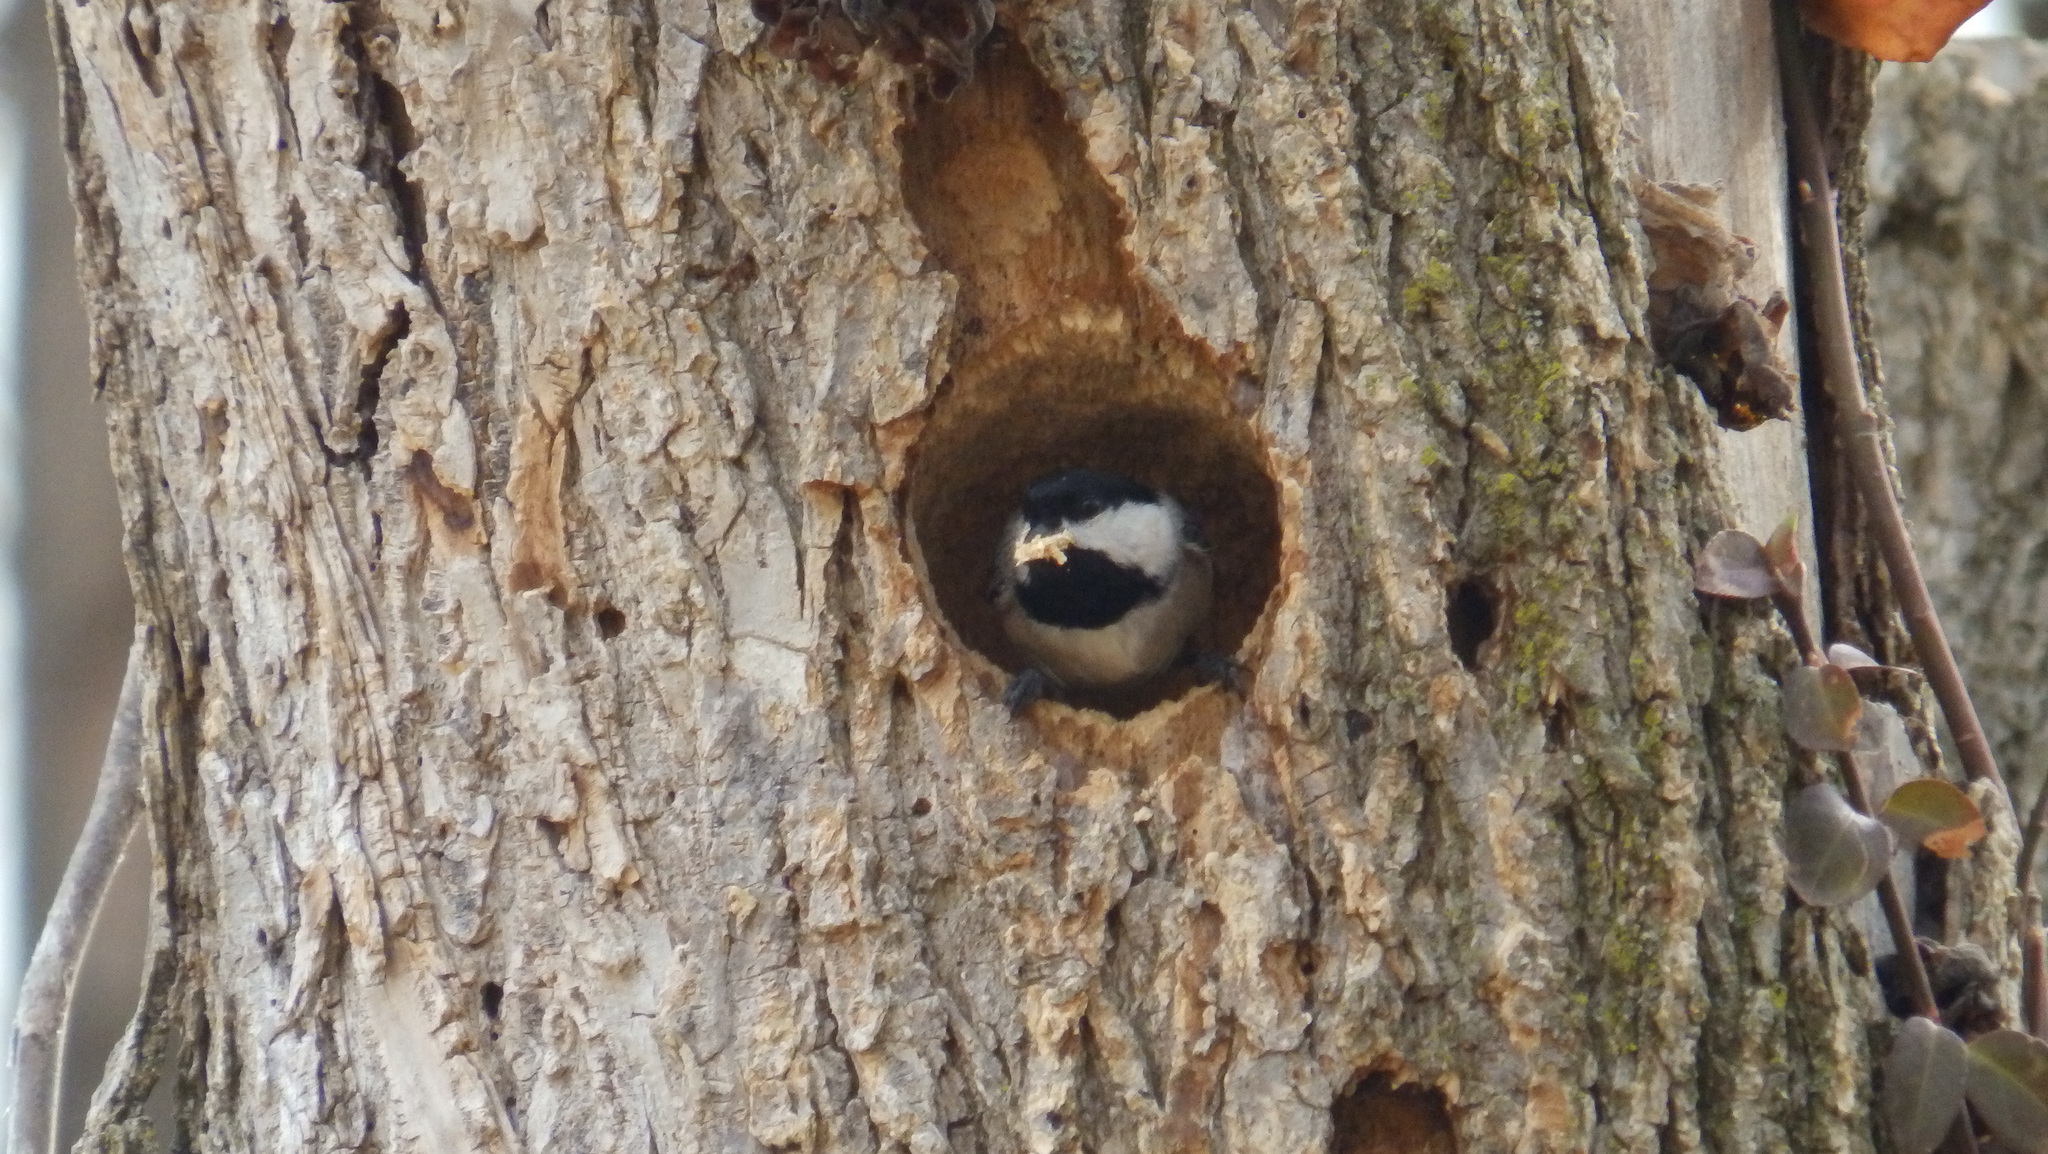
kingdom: Animalia
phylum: Chordata
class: Aves
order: Passeriformes
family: Paridae
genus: Poecile
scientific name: Poecile carolinensis
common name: Carolina chickadee
